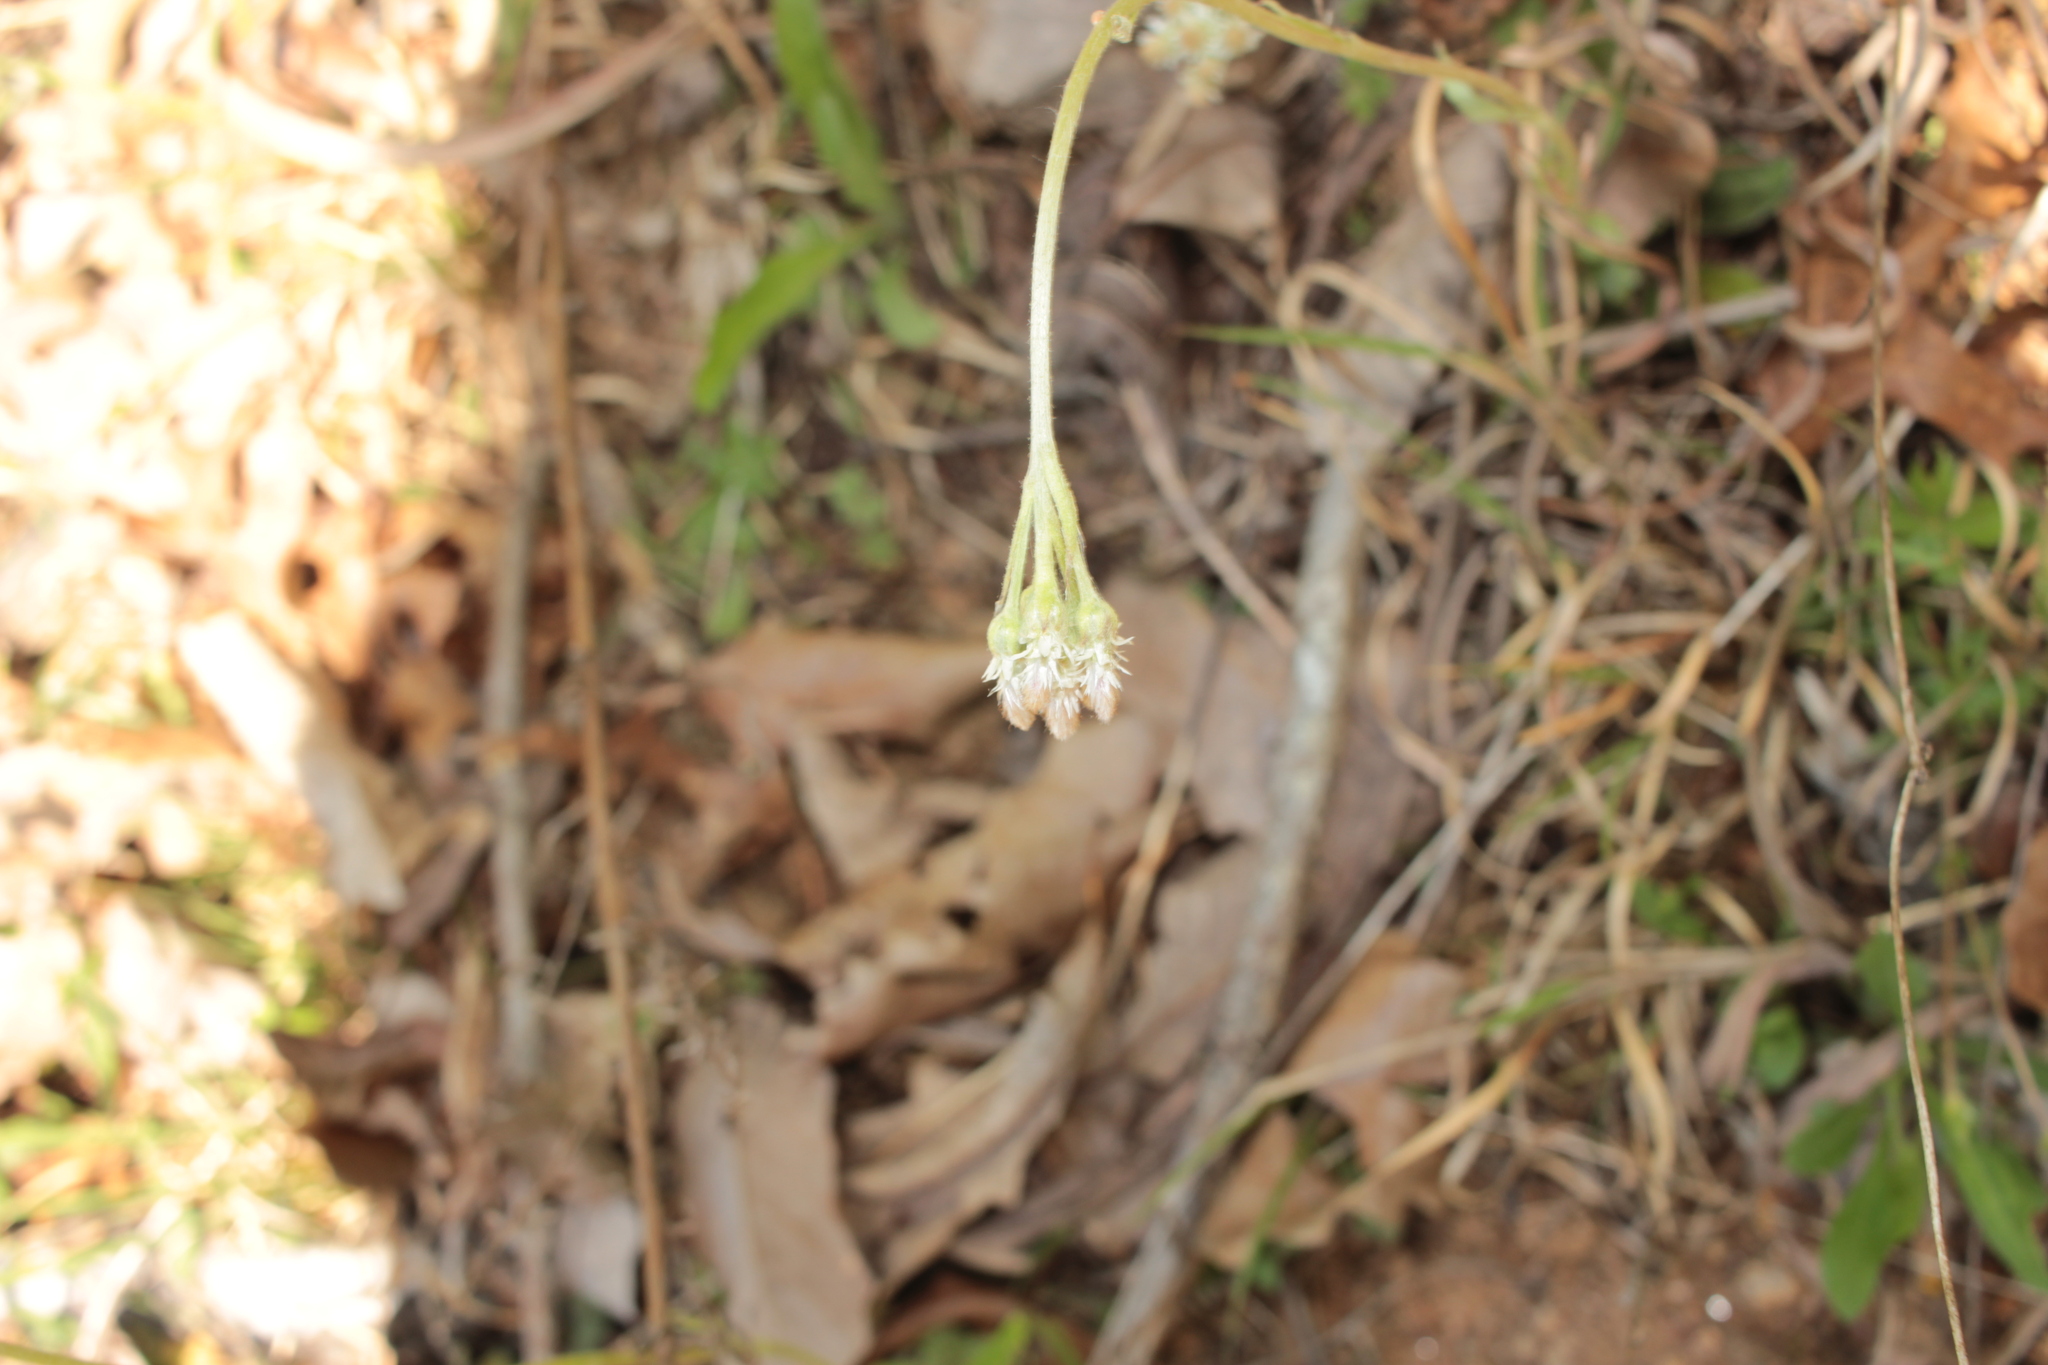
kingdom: Plantae
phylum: Tracheophyta
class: Magnoliopsida
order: Asterales
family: Asteraceae
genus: Antennaria
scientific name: Antennaria plantaginifolia
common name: Plantain-leaved pussytoes
